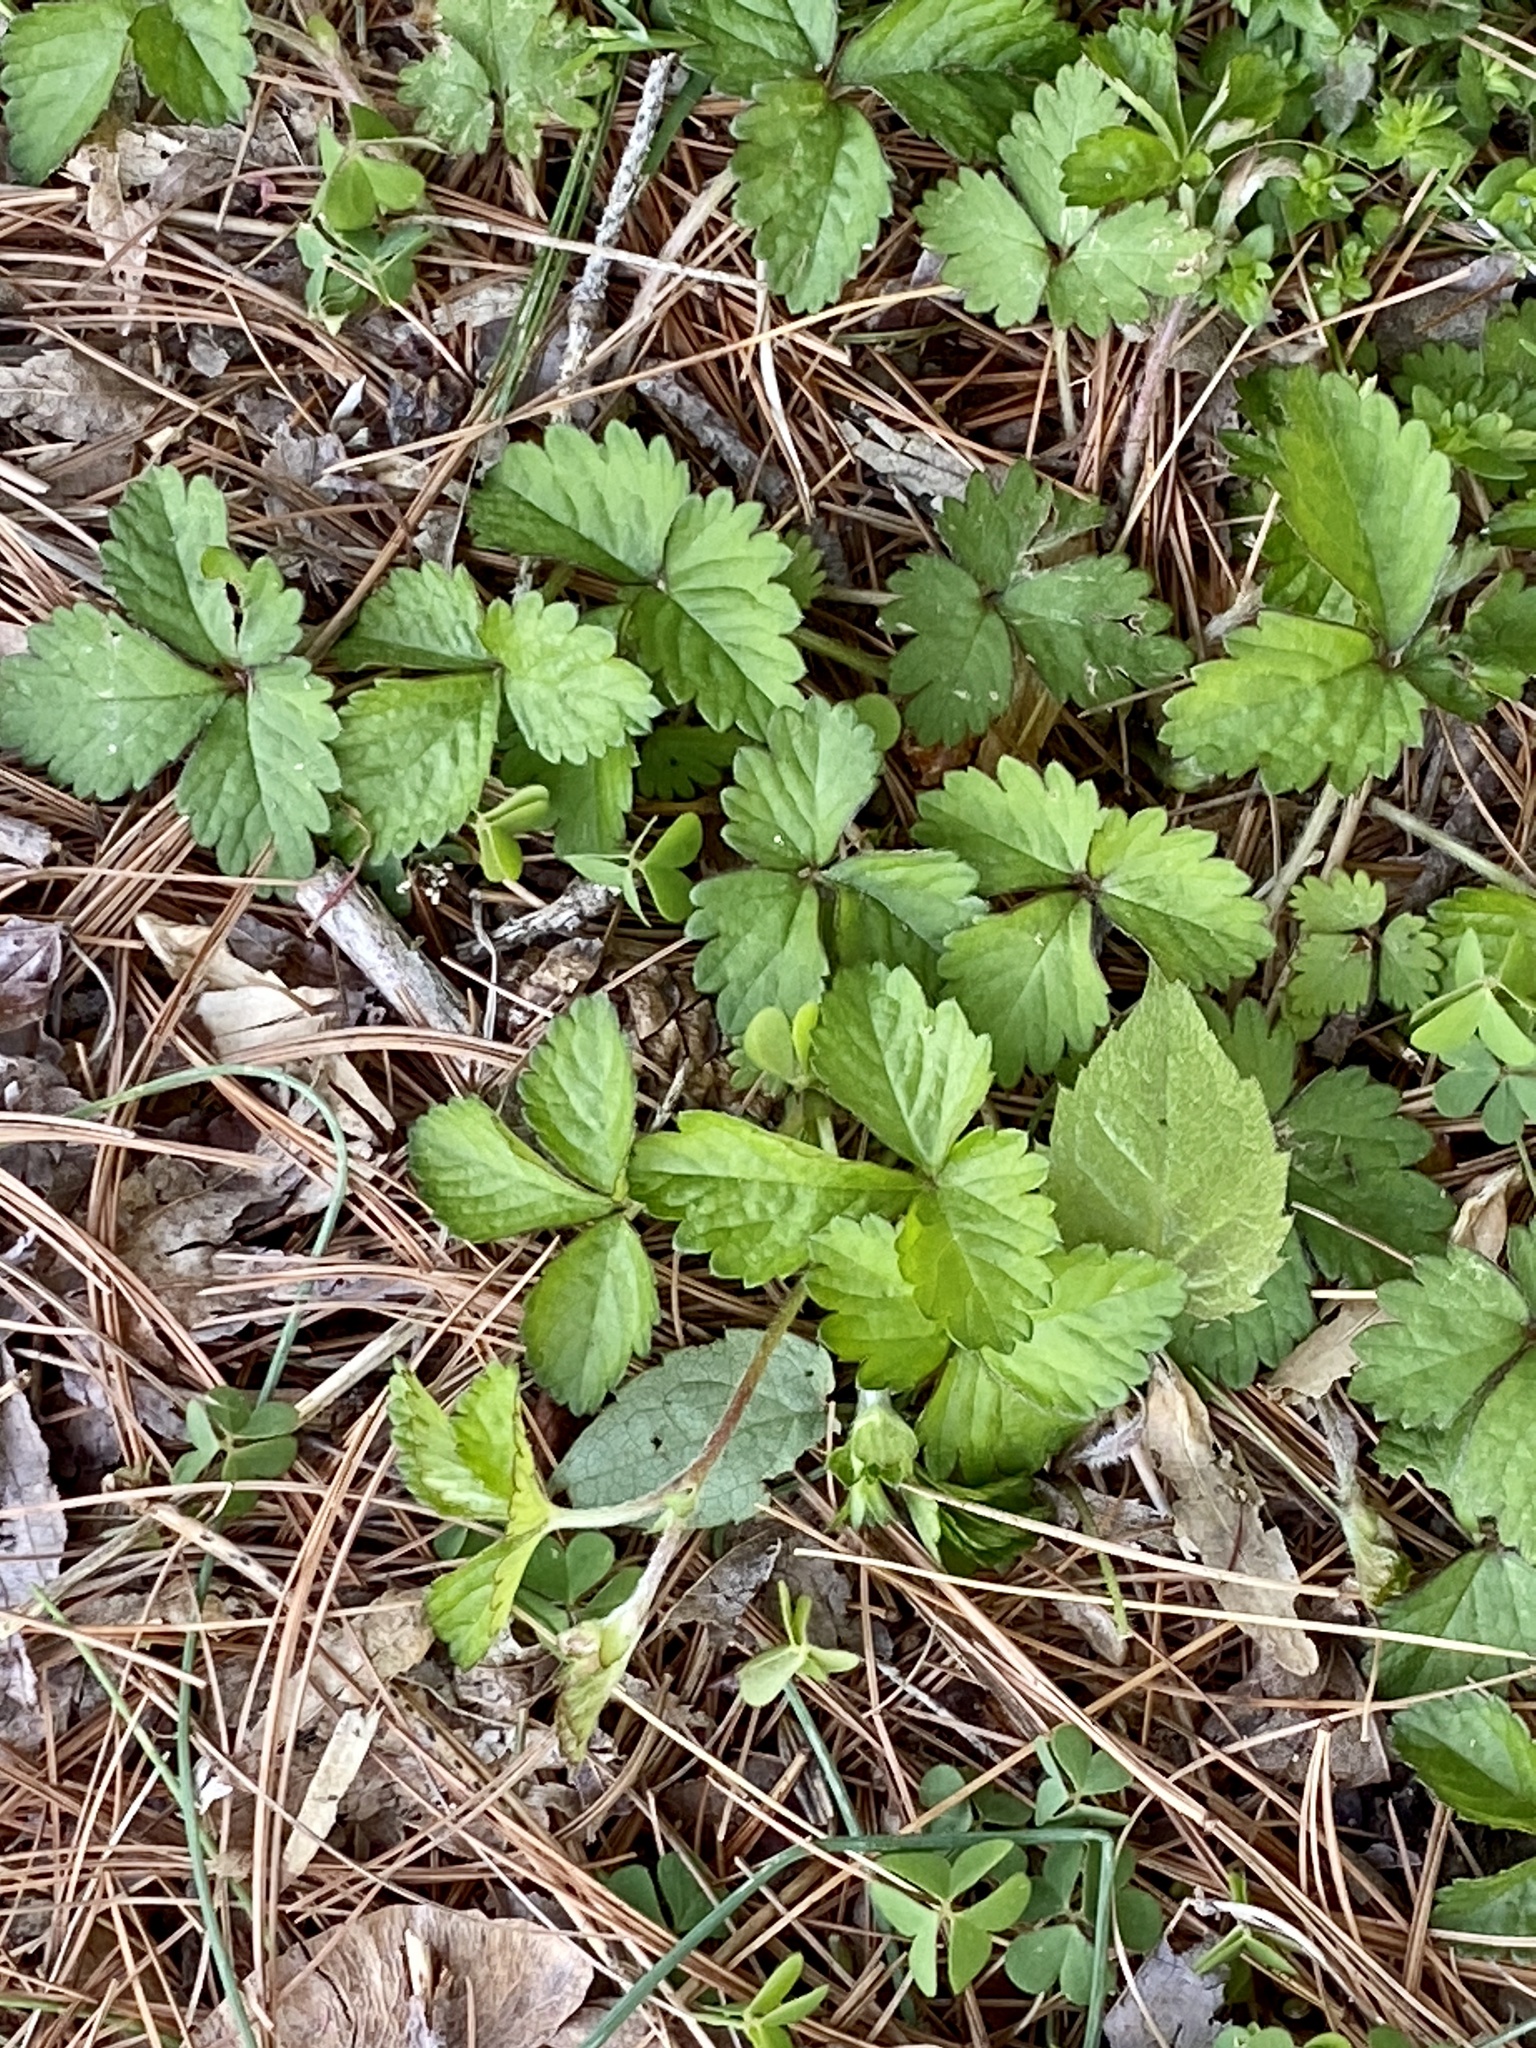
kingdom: Plantae
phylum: Tracheophyta
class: Magnoliopsida
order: Rosales
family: Rosaceae
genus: Potentilla
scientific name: Potentilla indica
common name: Yellow-flowered strawberry
